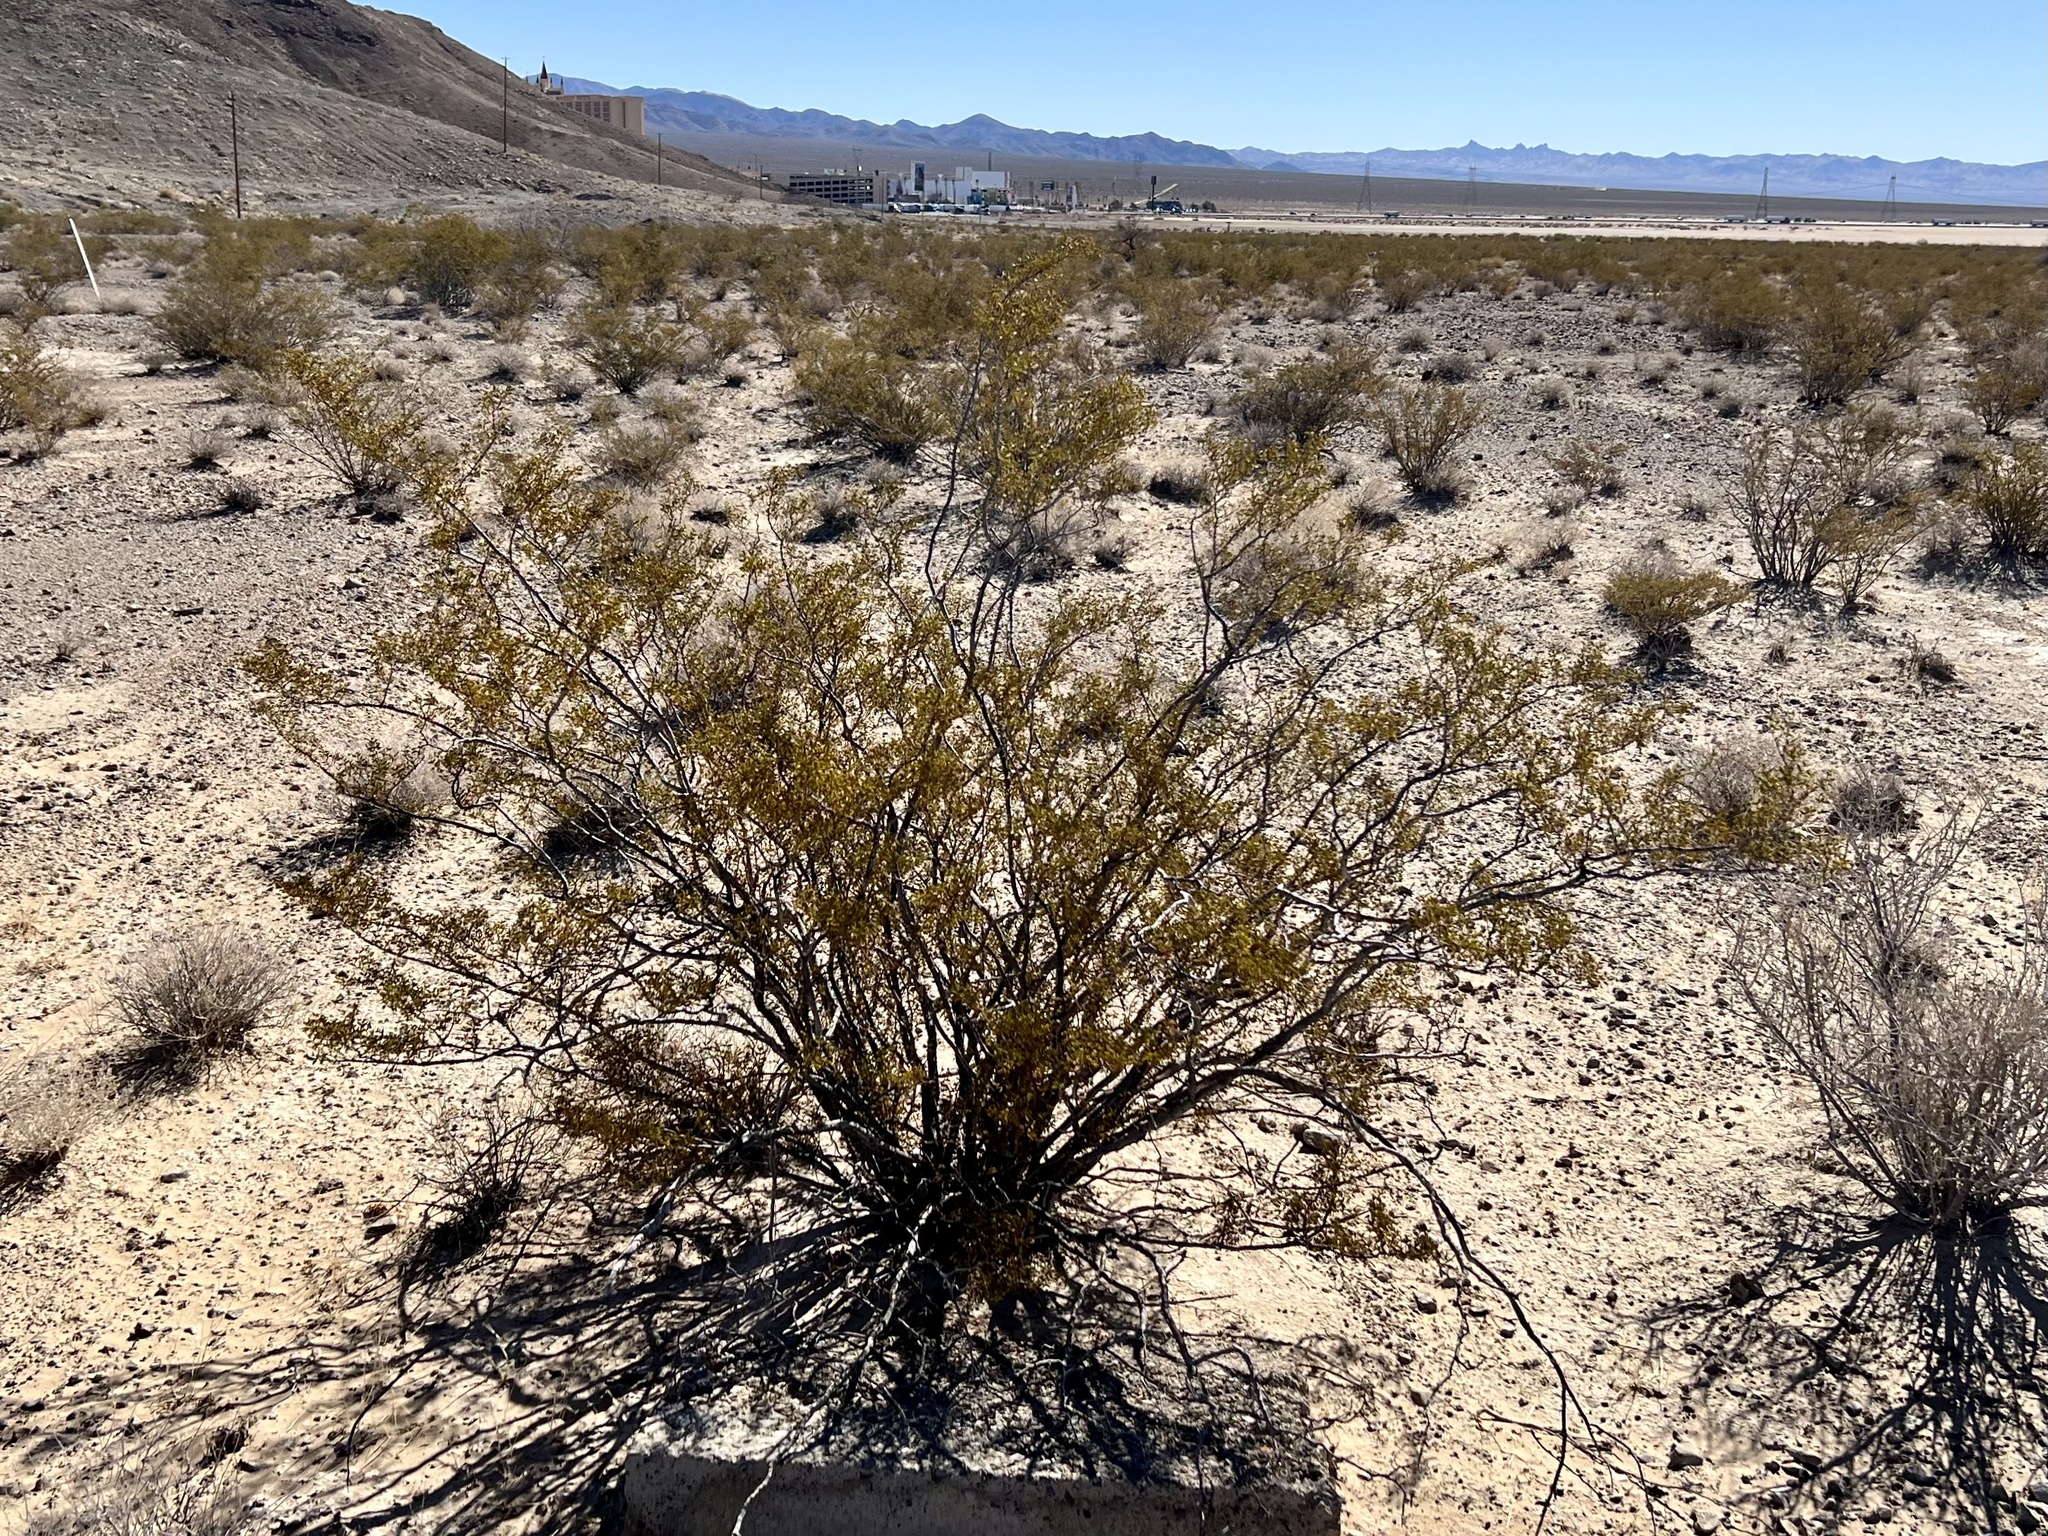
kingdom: Plantae
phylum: Tracheophyta
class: Magnoliopsida
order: Zygophyllales
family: Zygophyllaceae
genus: Larrea
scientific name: Larrea tridentata
